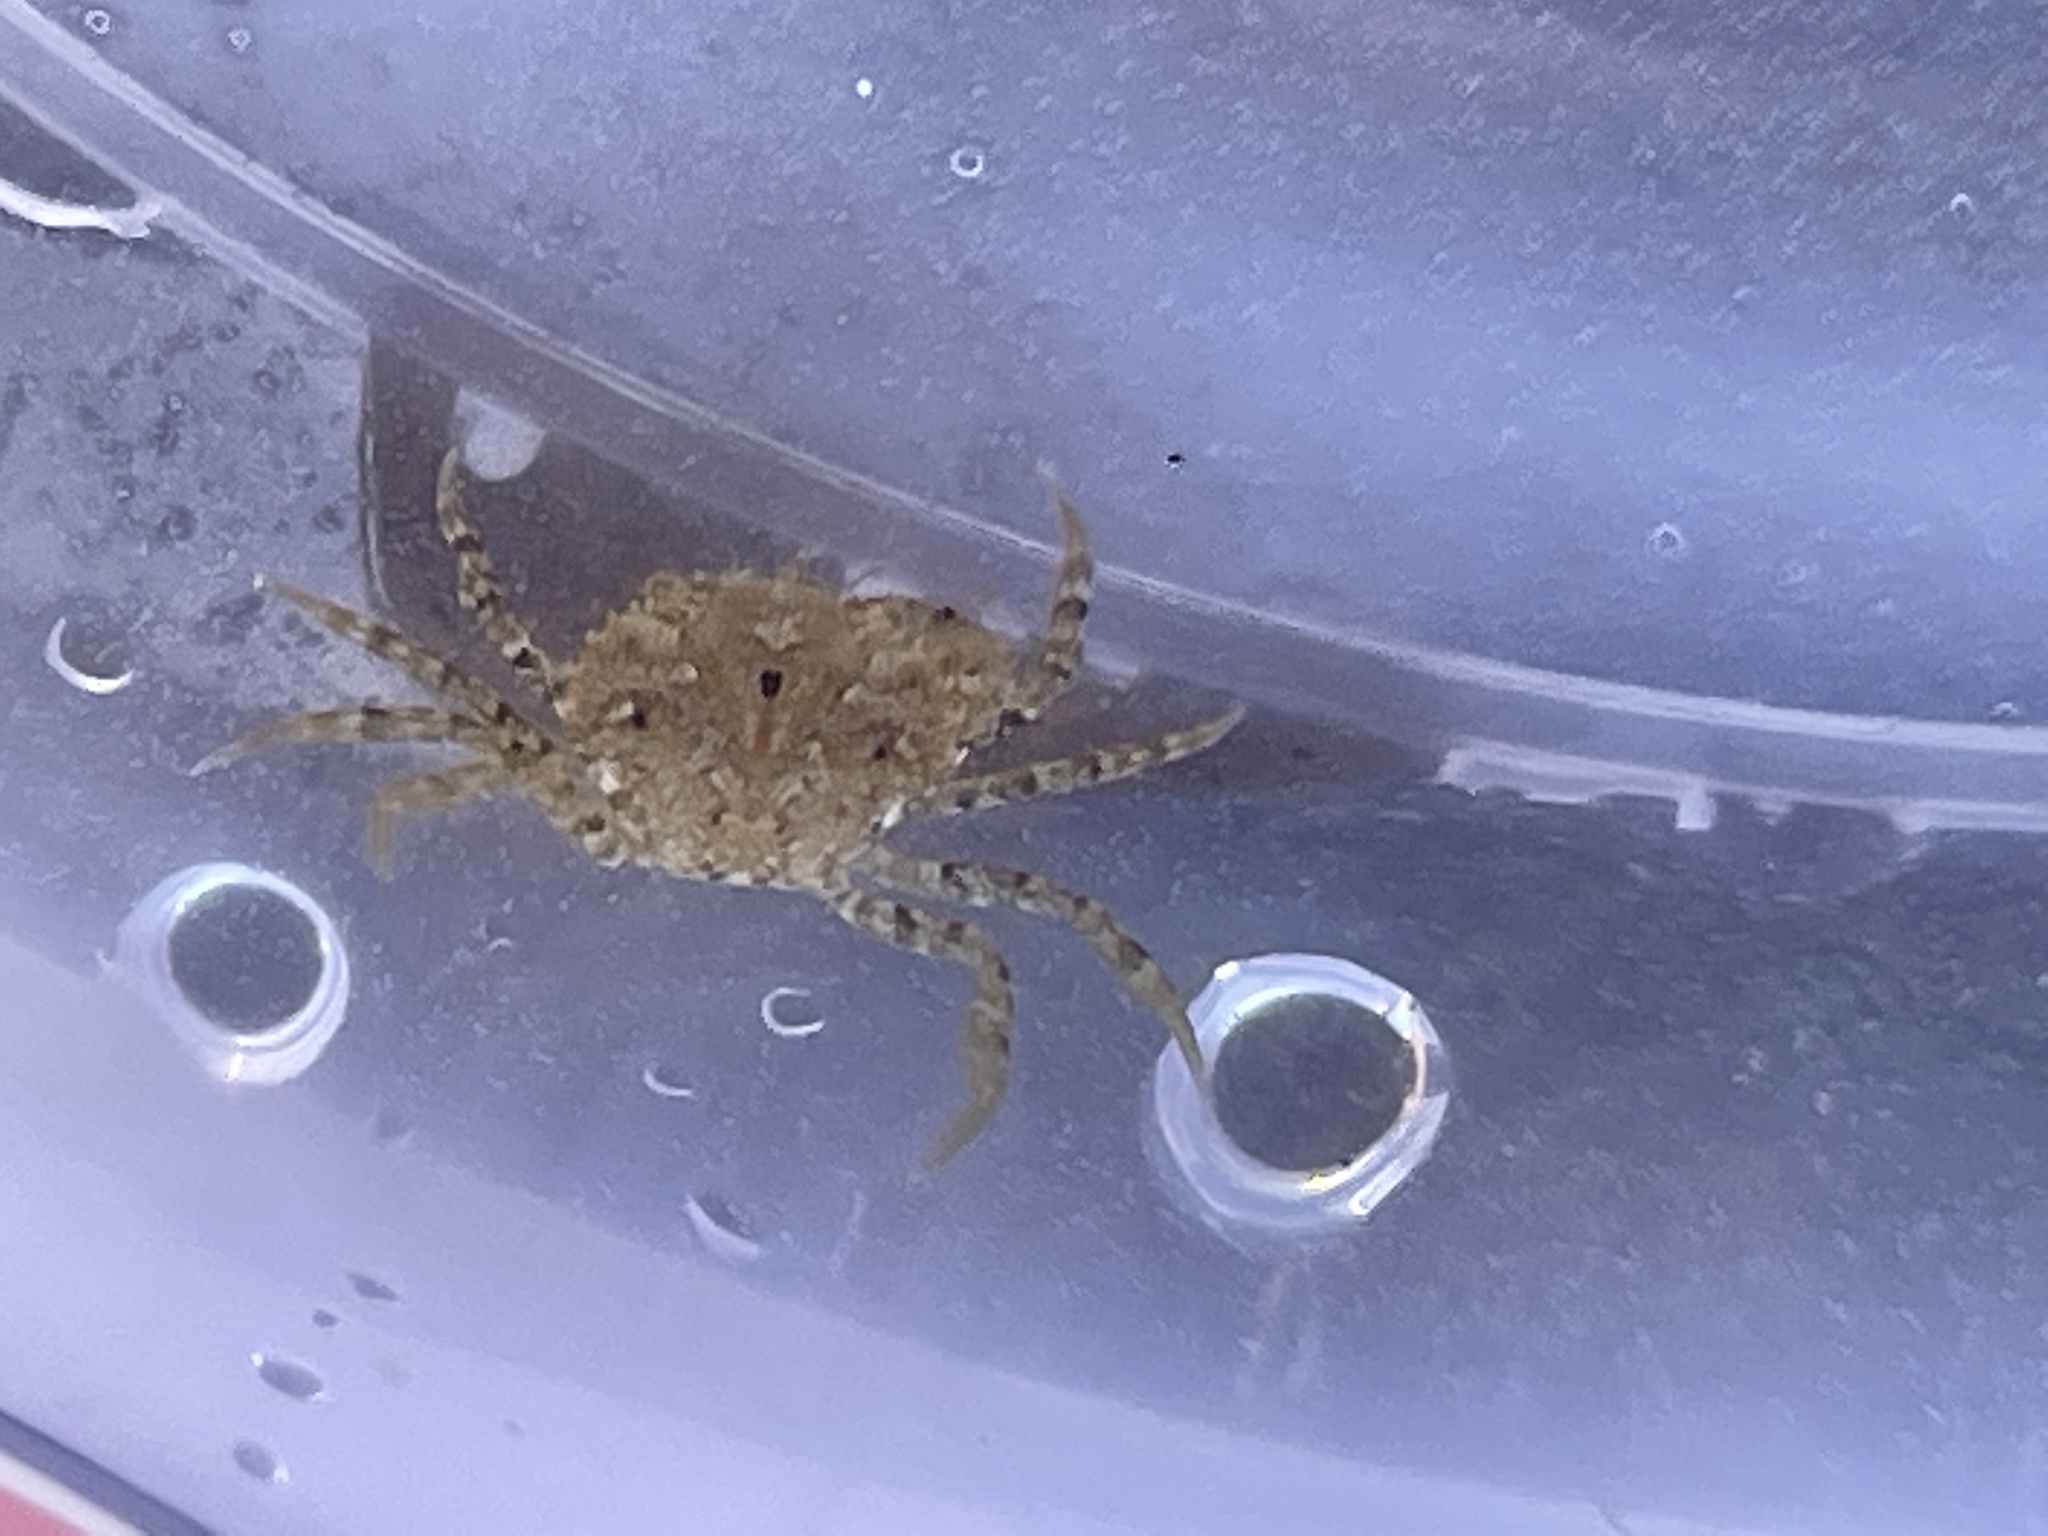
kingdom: Animalia
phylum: Arthropoda
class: Malacostraca
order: Decapoda
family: Carcinidae
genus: Carcinus
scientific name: Carcinus maenas
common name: European green crab
